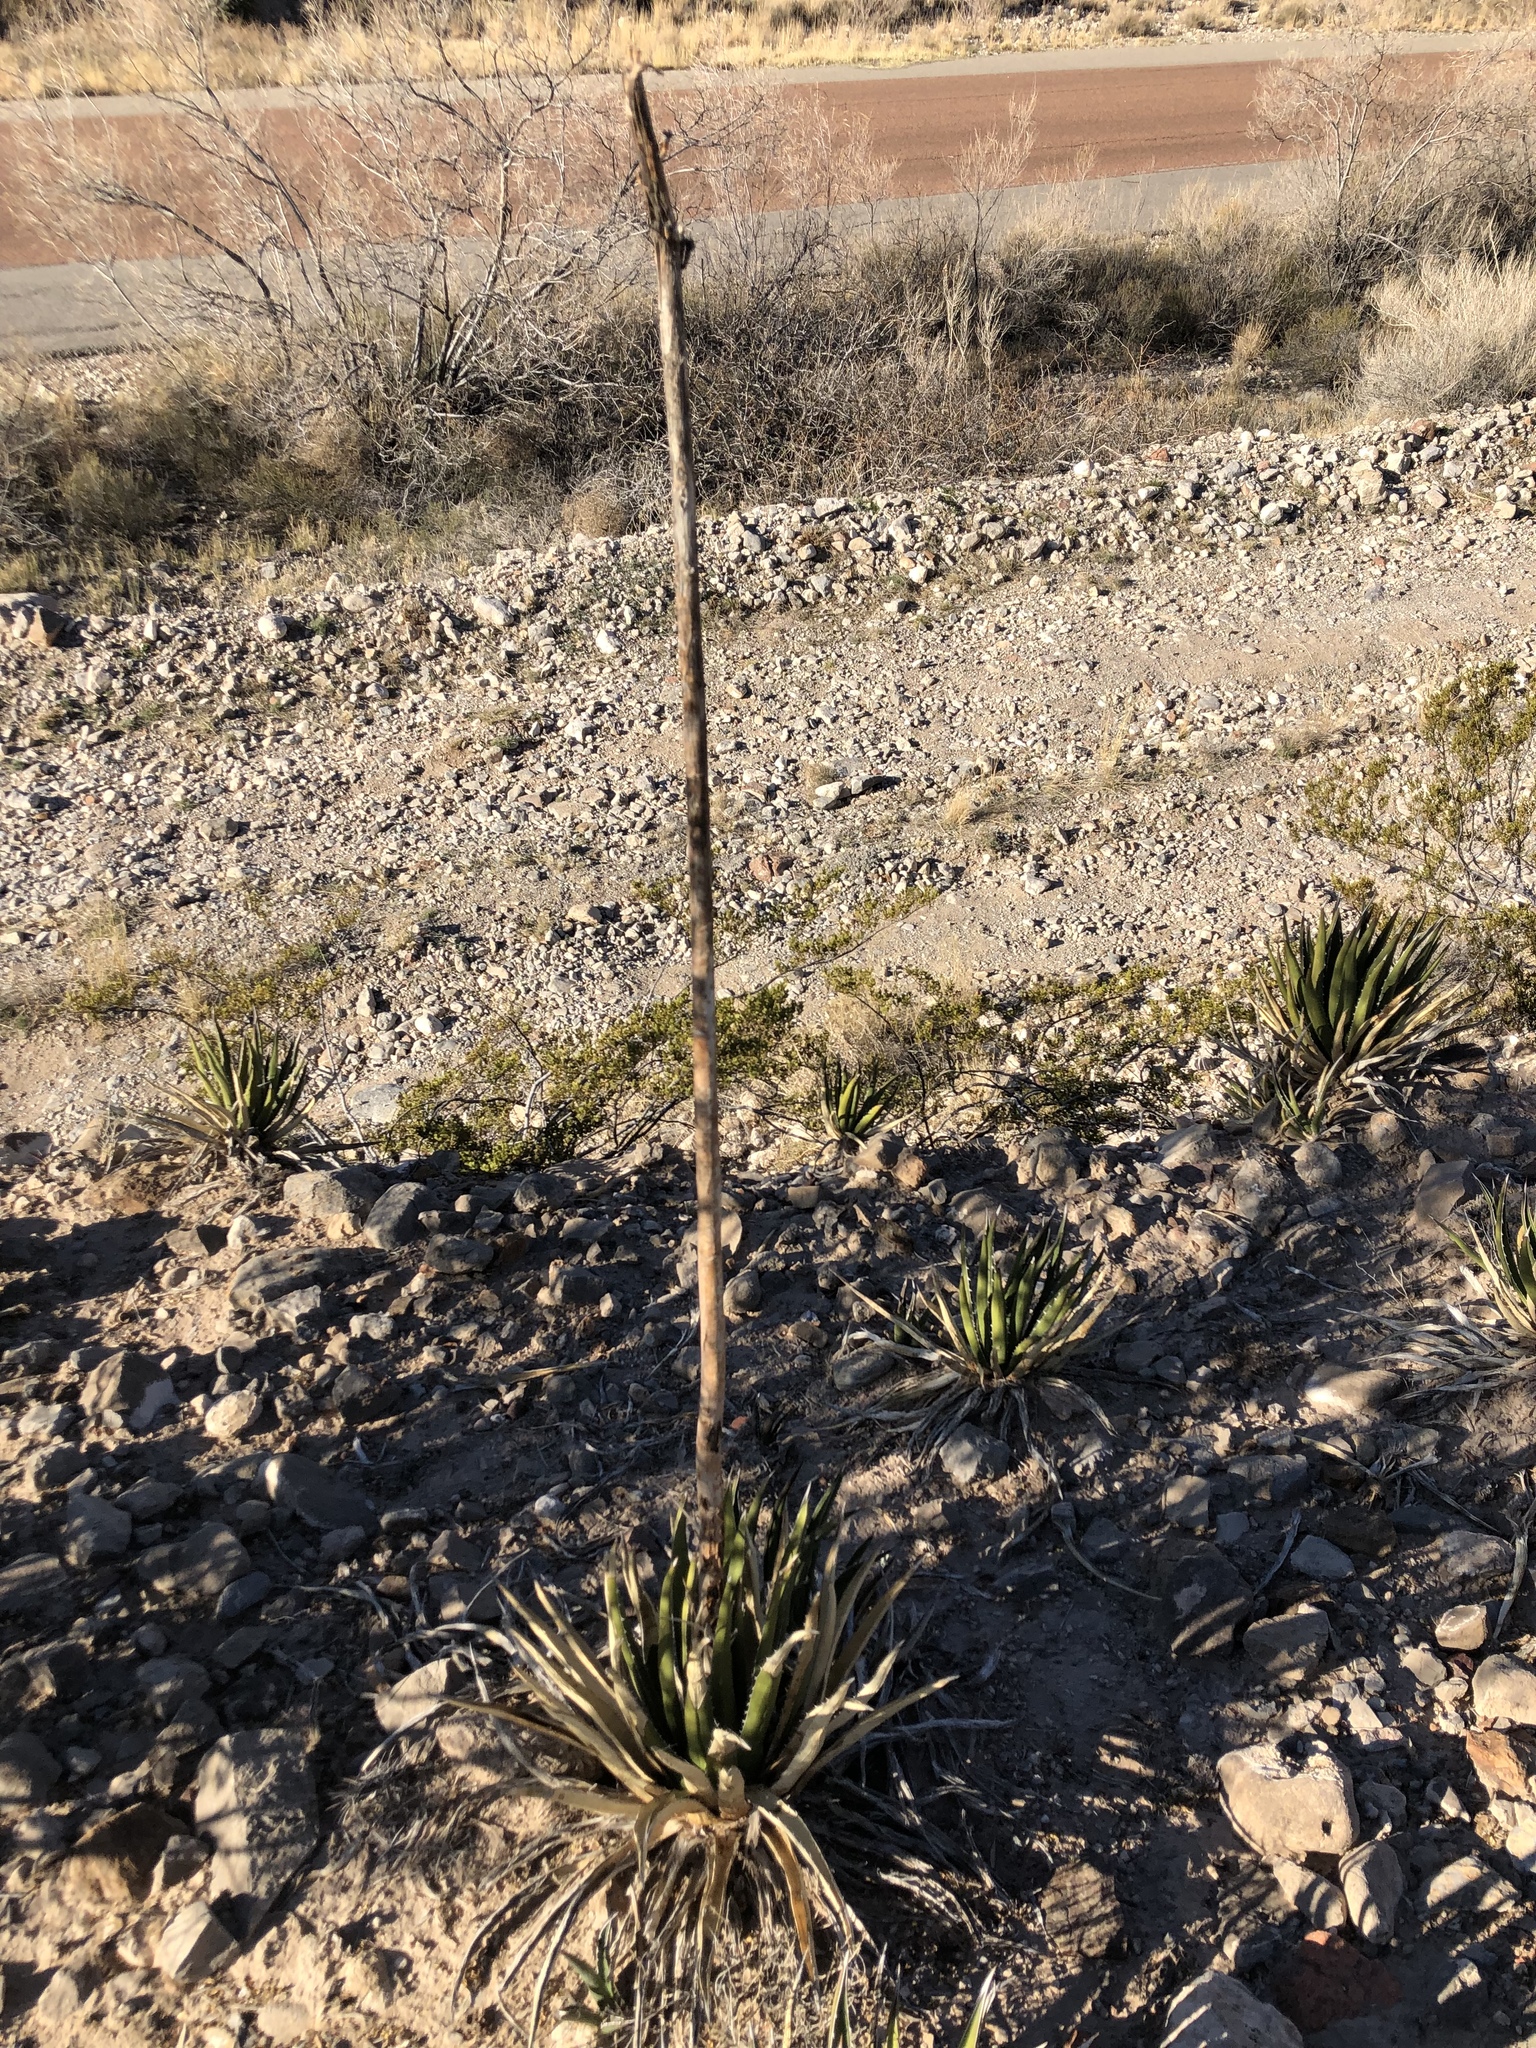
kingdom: Plantae
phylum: Tracheophyta
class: Liliopsida
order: Asparagales
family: Asparagaceae
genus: Agave
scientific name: Agave lechuguilla
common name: Lecheguilla agave
